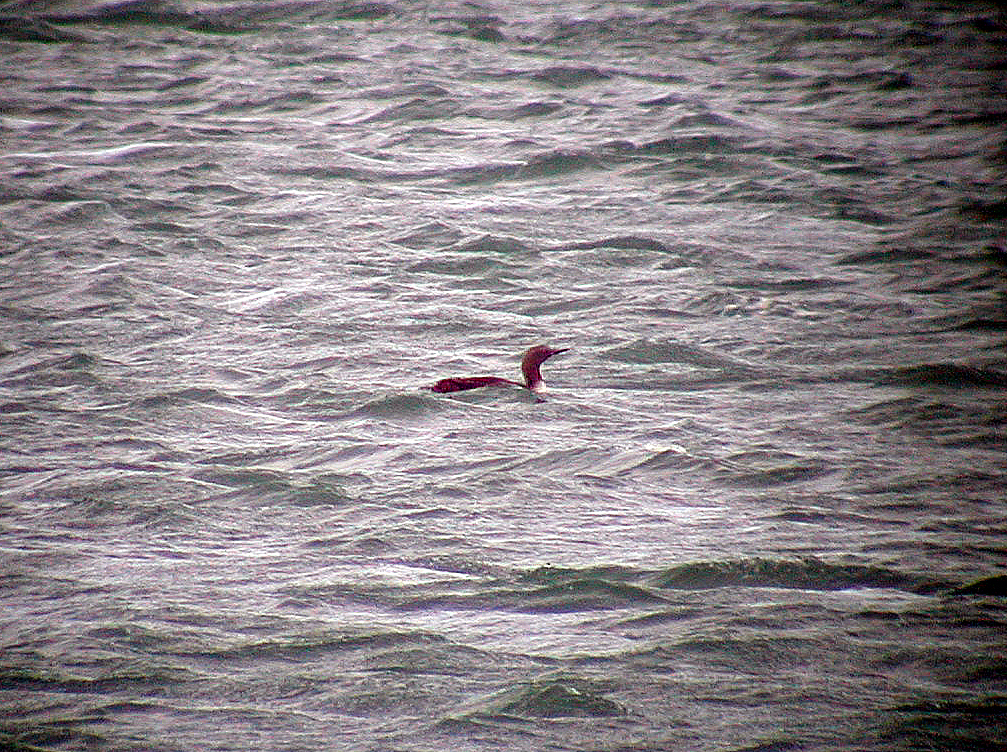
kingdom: Animalia
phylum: Chordata
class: Aves
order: Gaviiformes
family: Gaviidae
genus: Gavia
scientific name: Gavia stellata
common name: Red-throated loon
